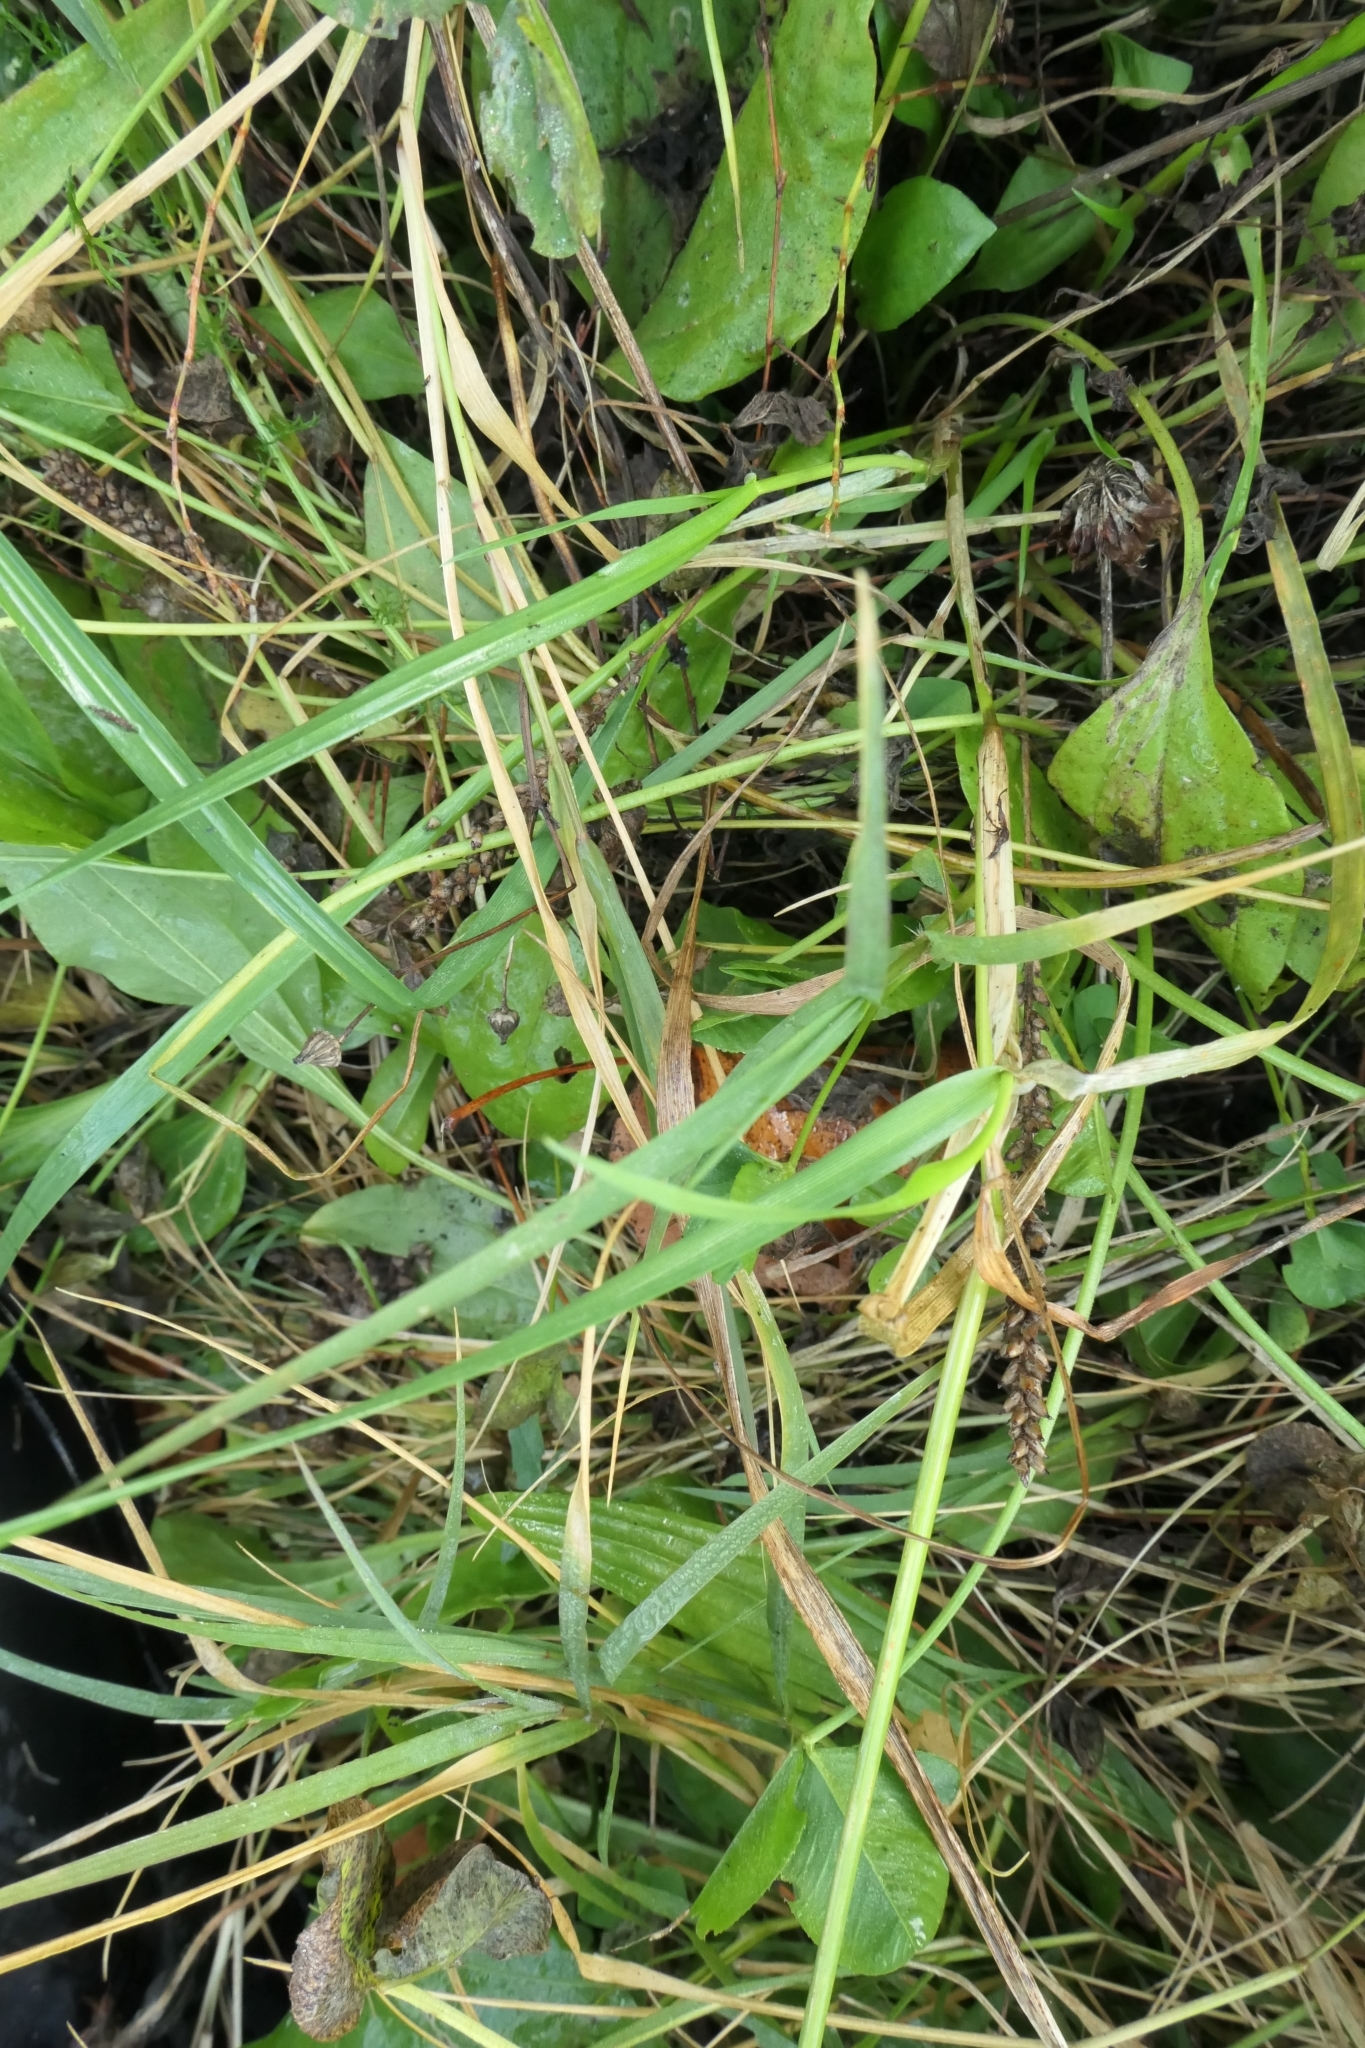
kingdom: Plantae
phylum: Tracheophyta
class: Liliopsida
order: Poales
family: Poaceae
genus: Lolium
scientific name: Lolium multiflorum
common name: Annual ryegrass
